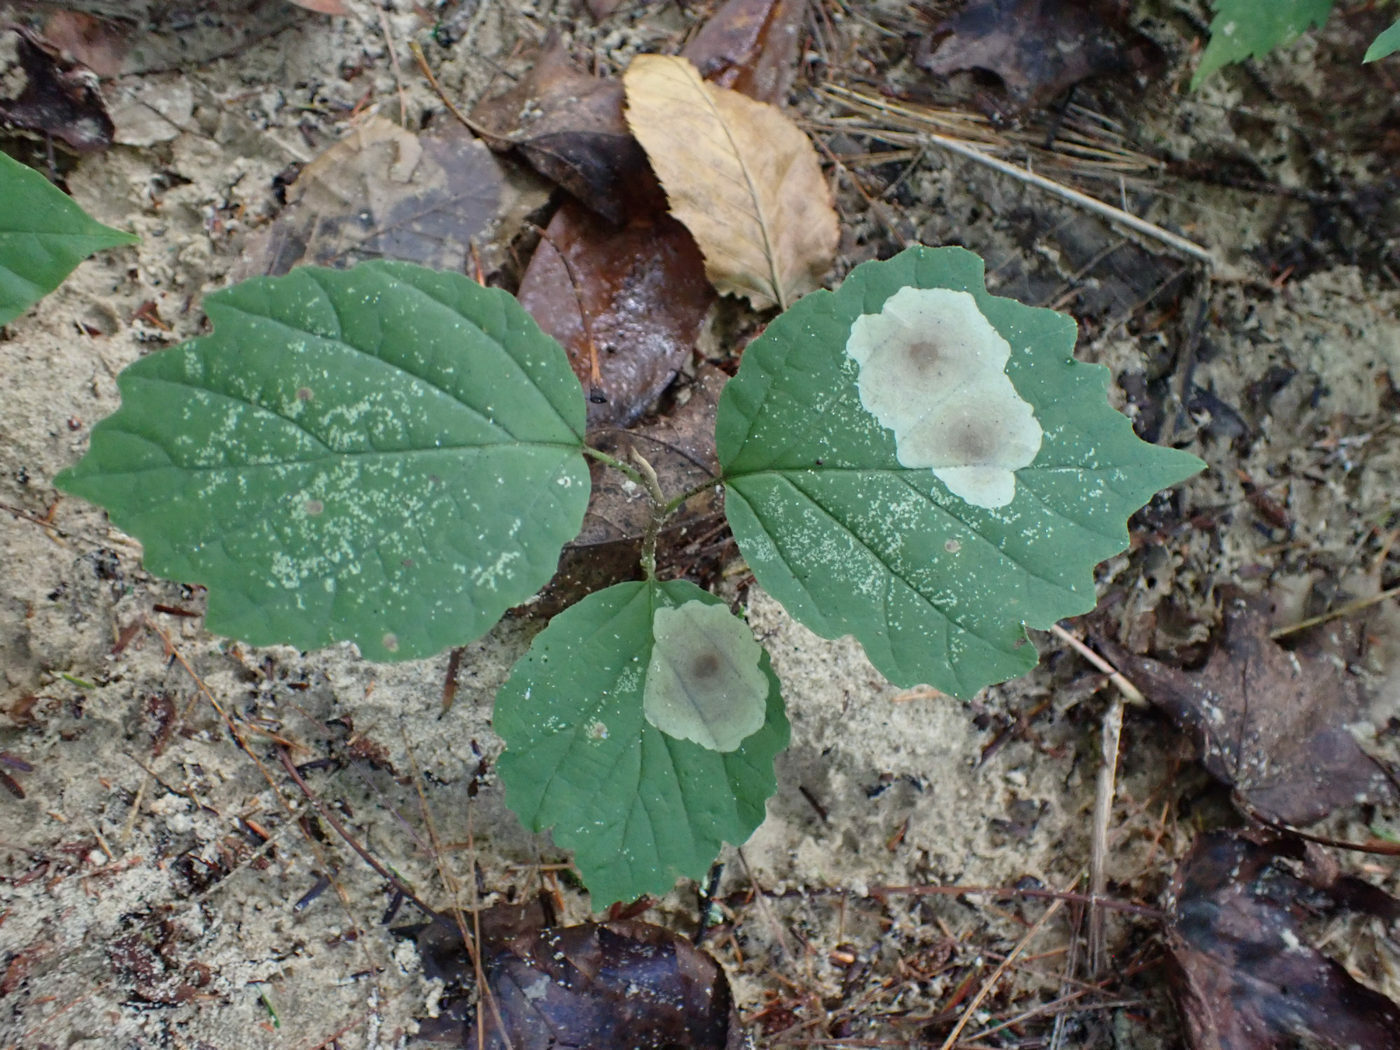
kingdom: Animalia
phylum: Arthropoda
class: Insecta
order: Lepidoptera
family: Gracillariidae
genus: Cameraria
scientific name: Cameraria hamameliella
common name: Witchhazel leafminer
